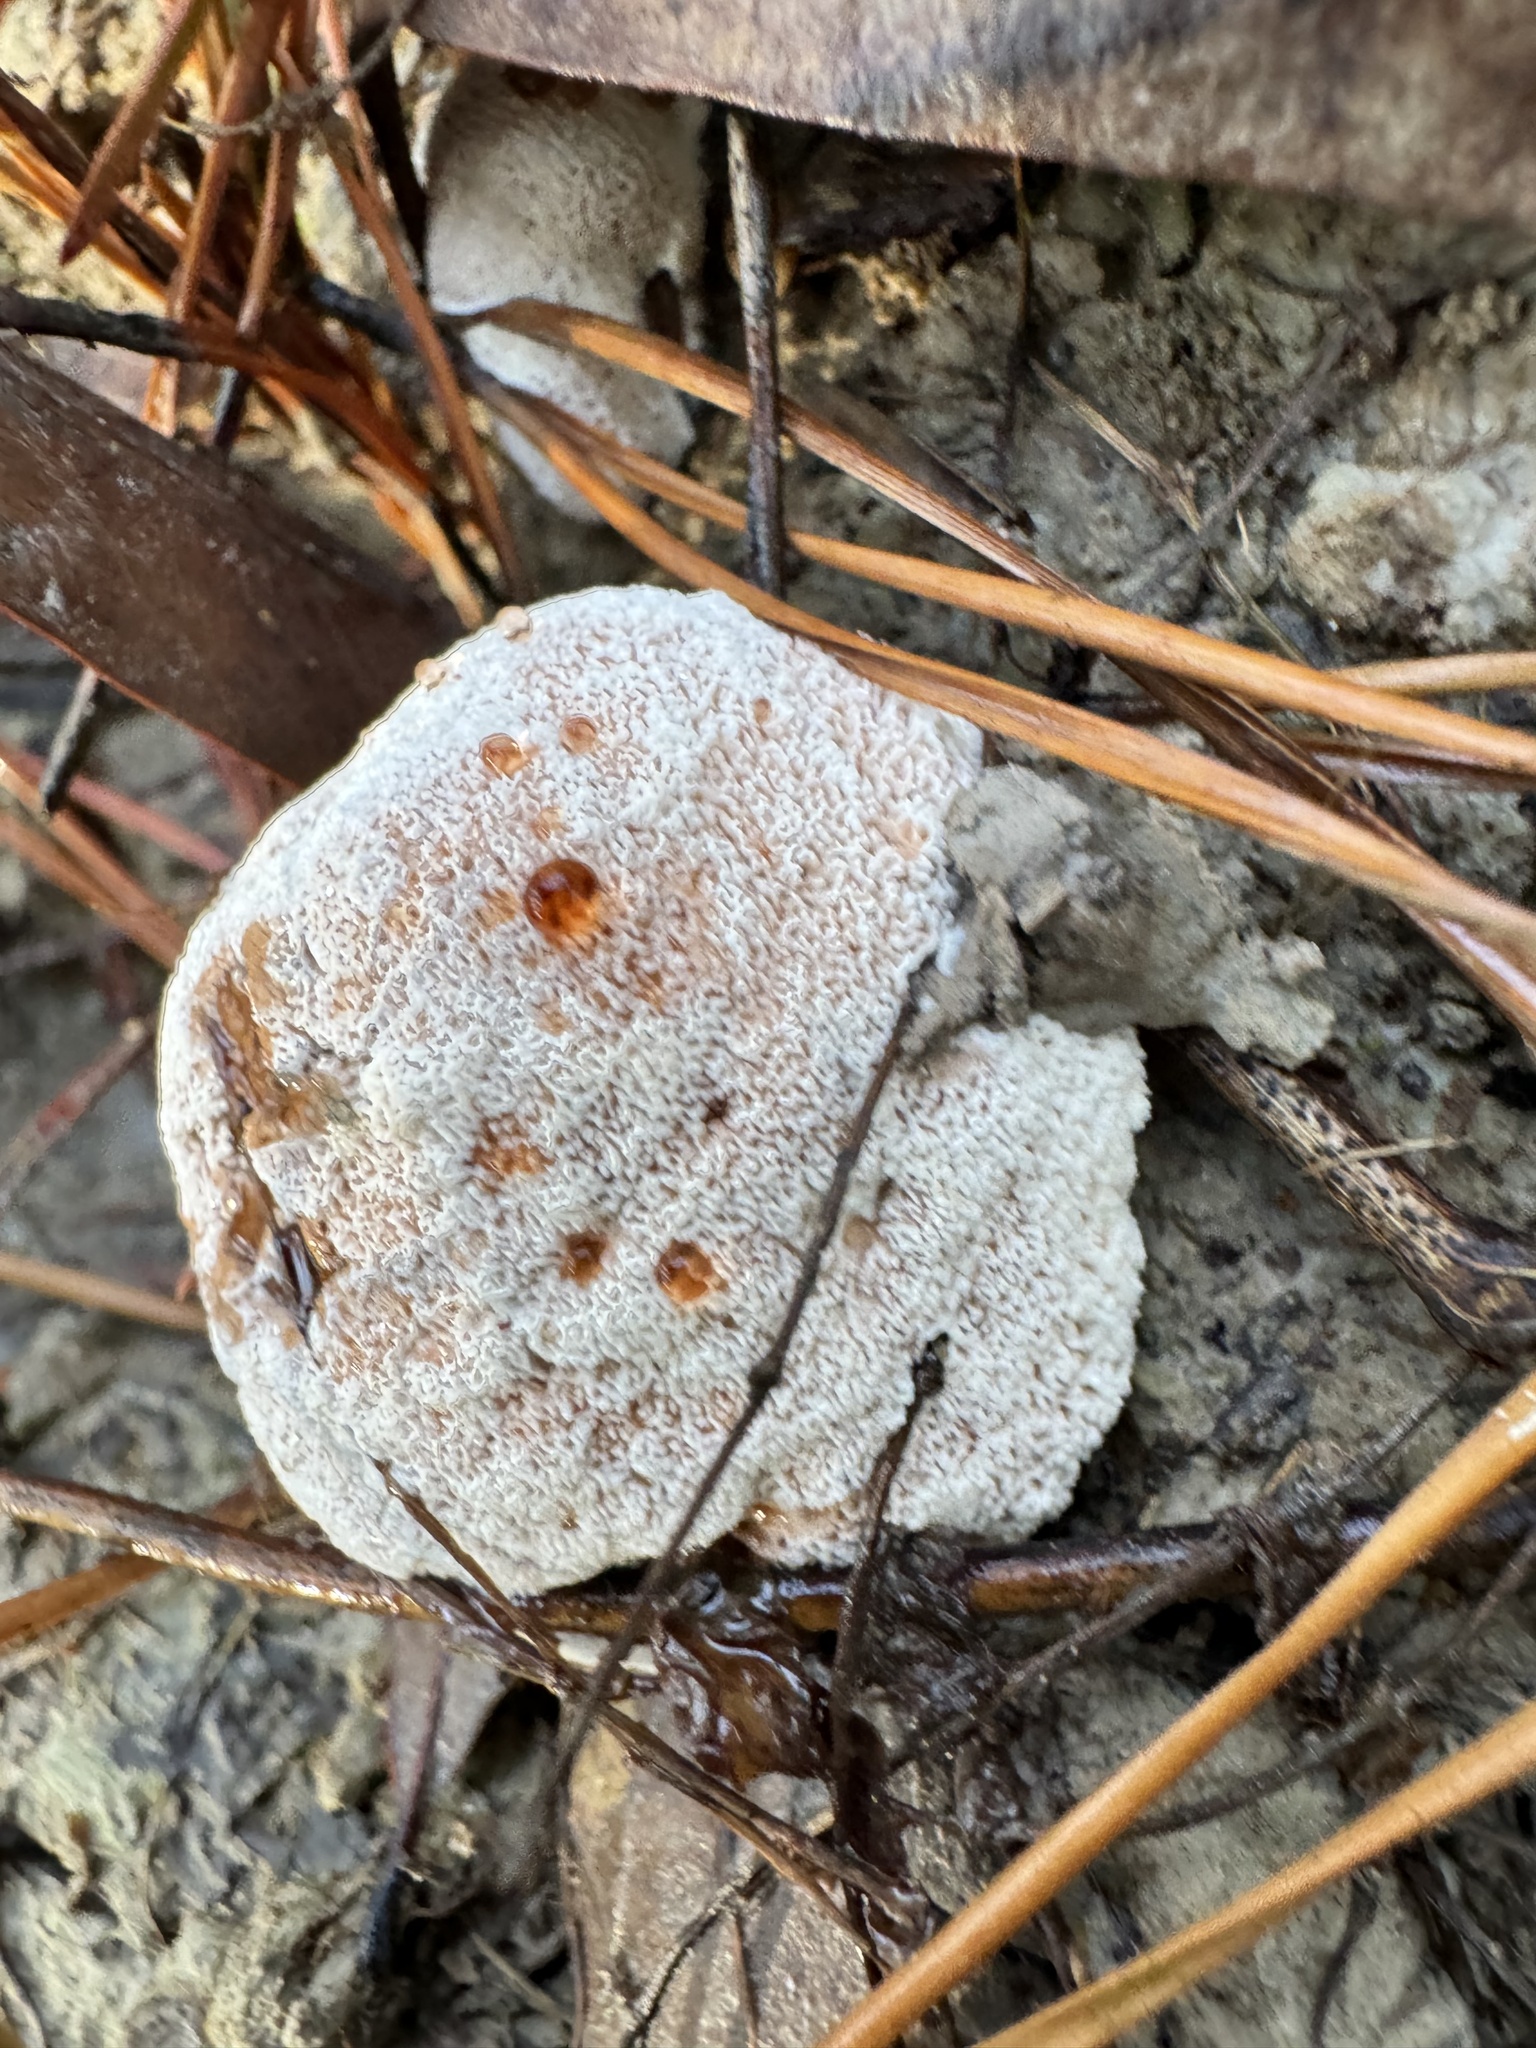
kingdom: Fungi
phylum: Basidiomycota
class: Agaricomycetes
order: Polyporales
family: Podoscyphaceae
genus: Abortiporus
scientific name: Abortiporus biennis
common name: Blushing rosette
